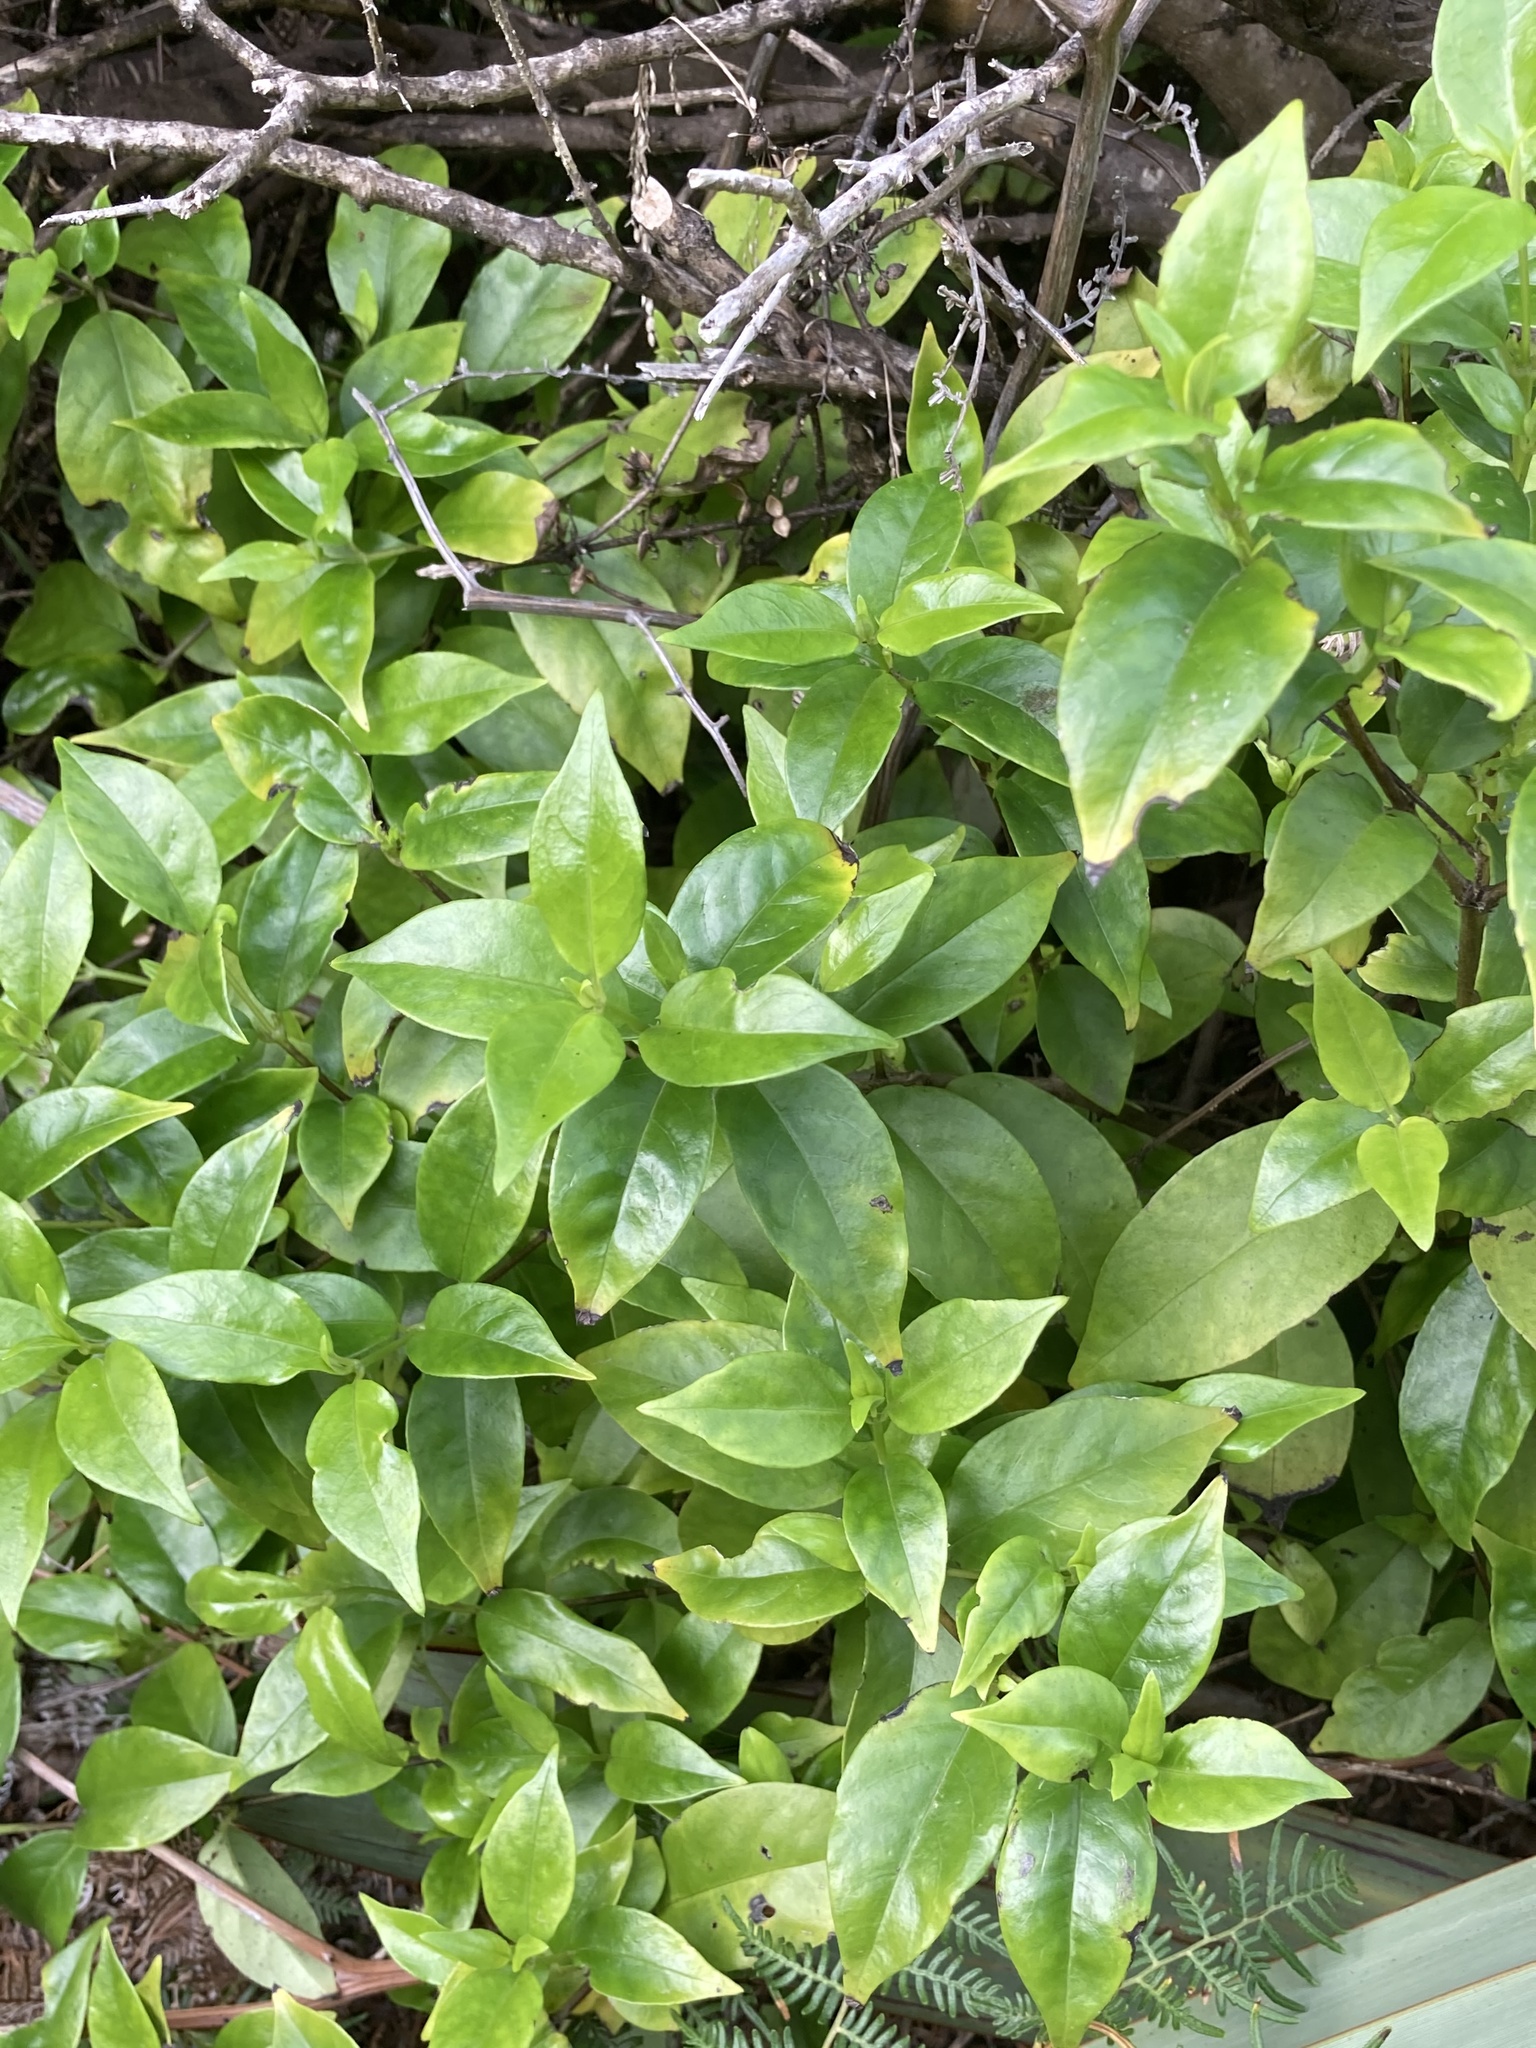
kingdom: Plantae
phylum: Tracheophyta
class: Magnoliopsida
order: Gentianales
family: Loganiaceae
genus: Geniostoma
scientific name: Geniostoma ligustrifolium
